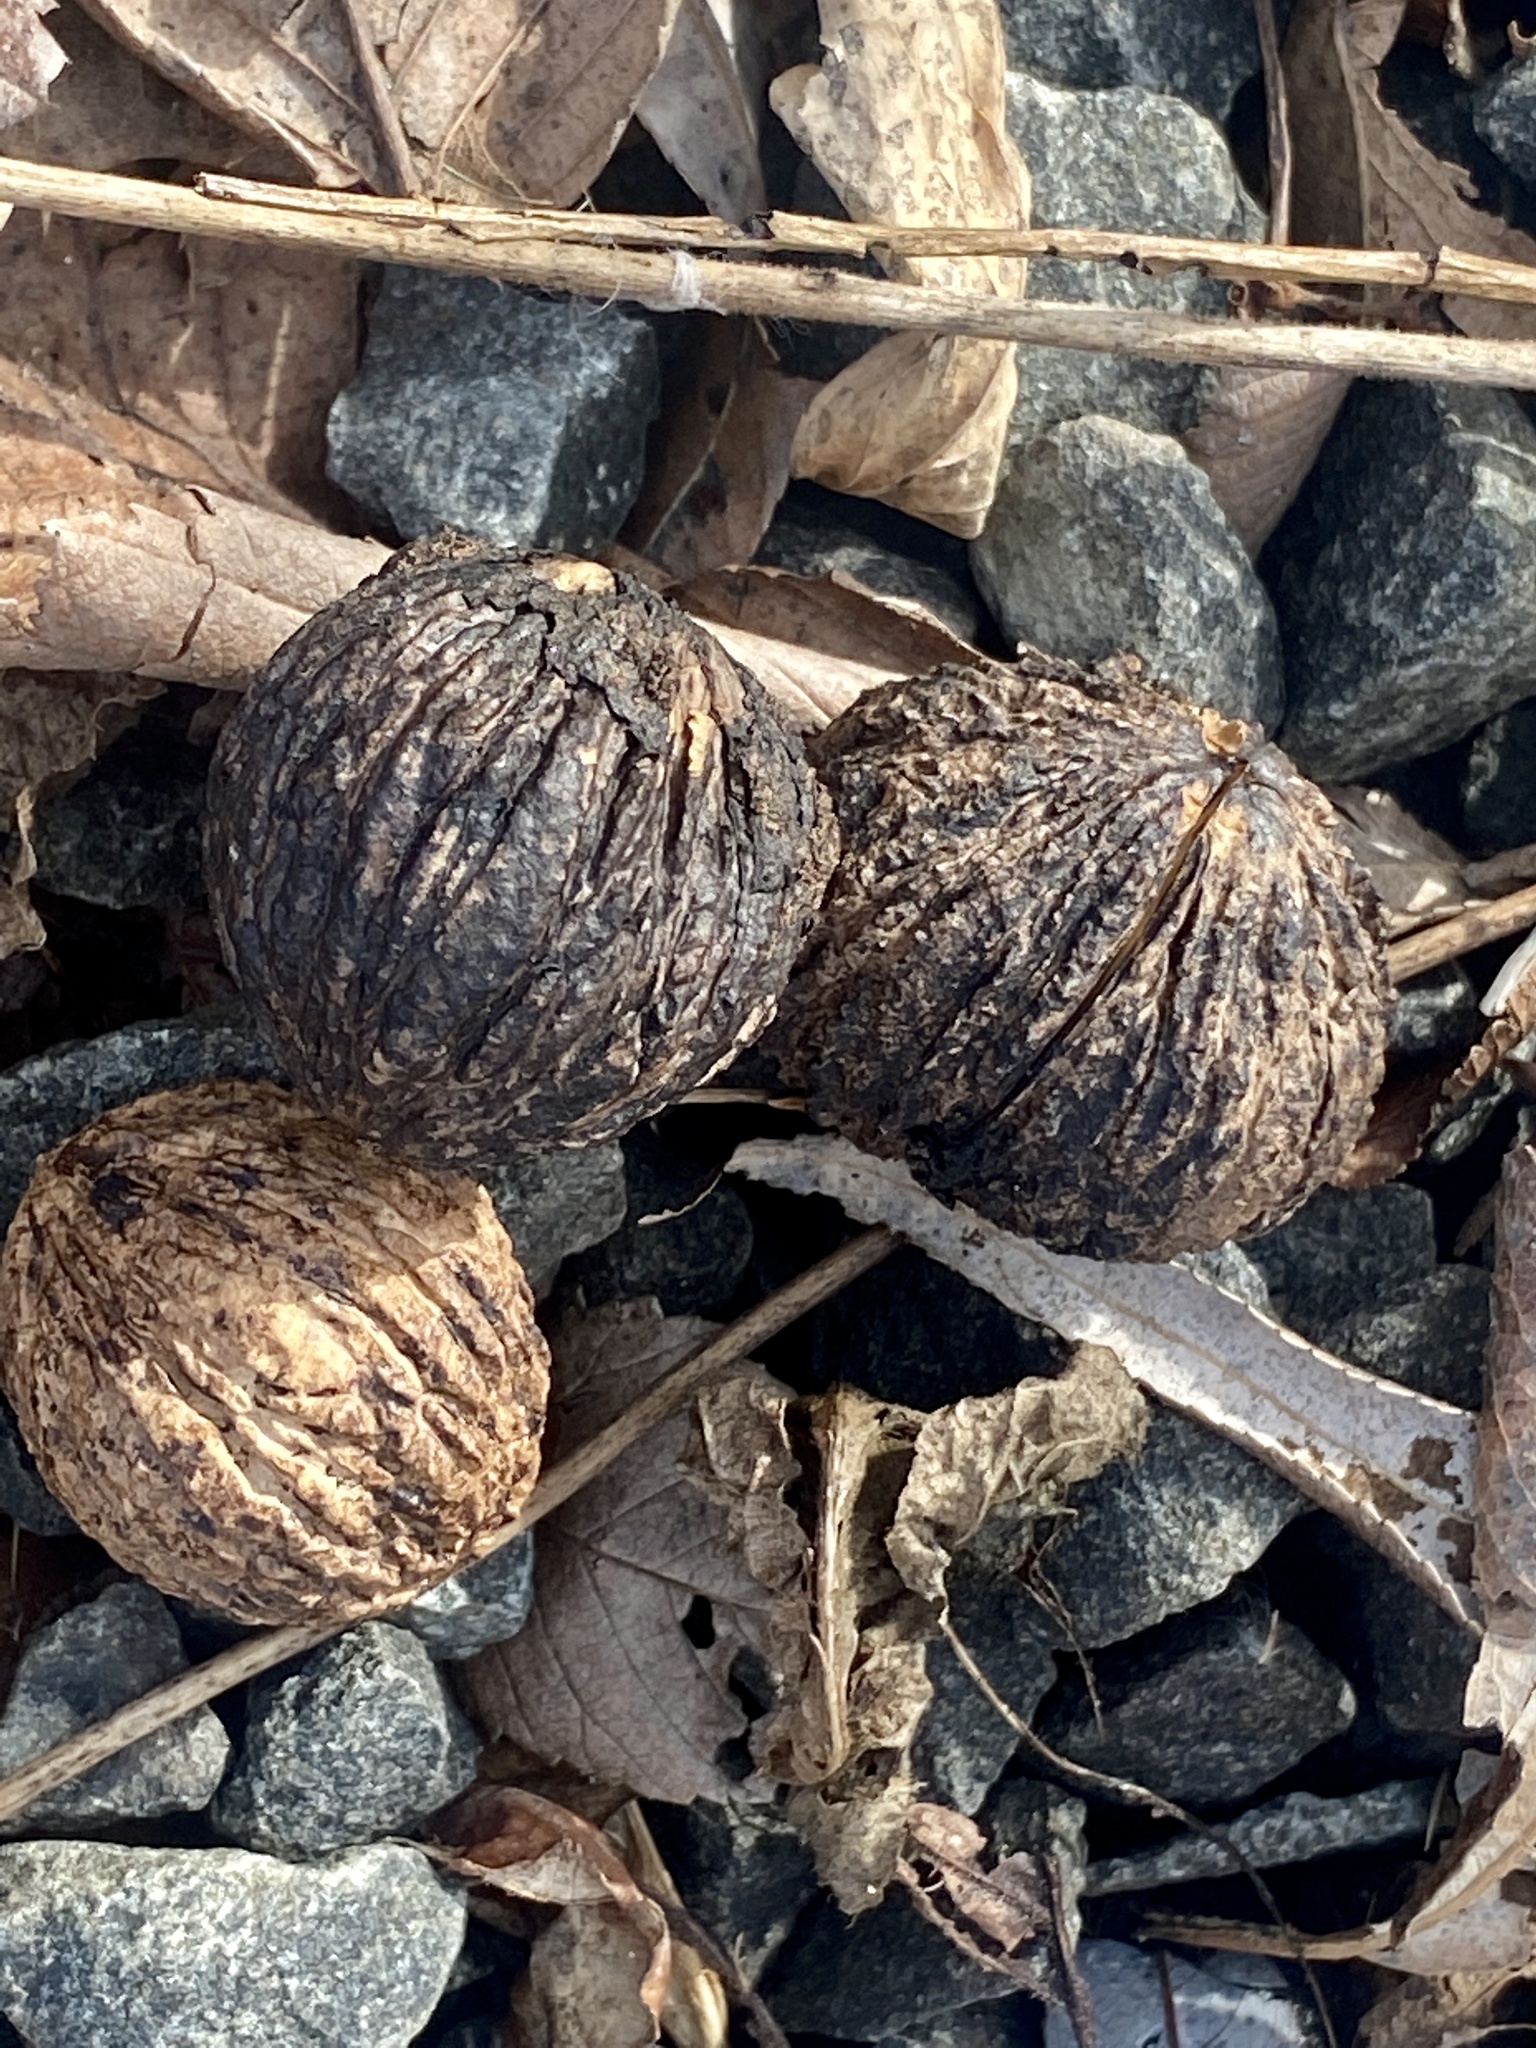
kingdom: Plantae
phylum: Tracheophyta
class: Magnoliopsida
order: Fagales
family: Juglandaceae
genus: Juglans
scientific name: Juglans nigra
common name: Black walnut
